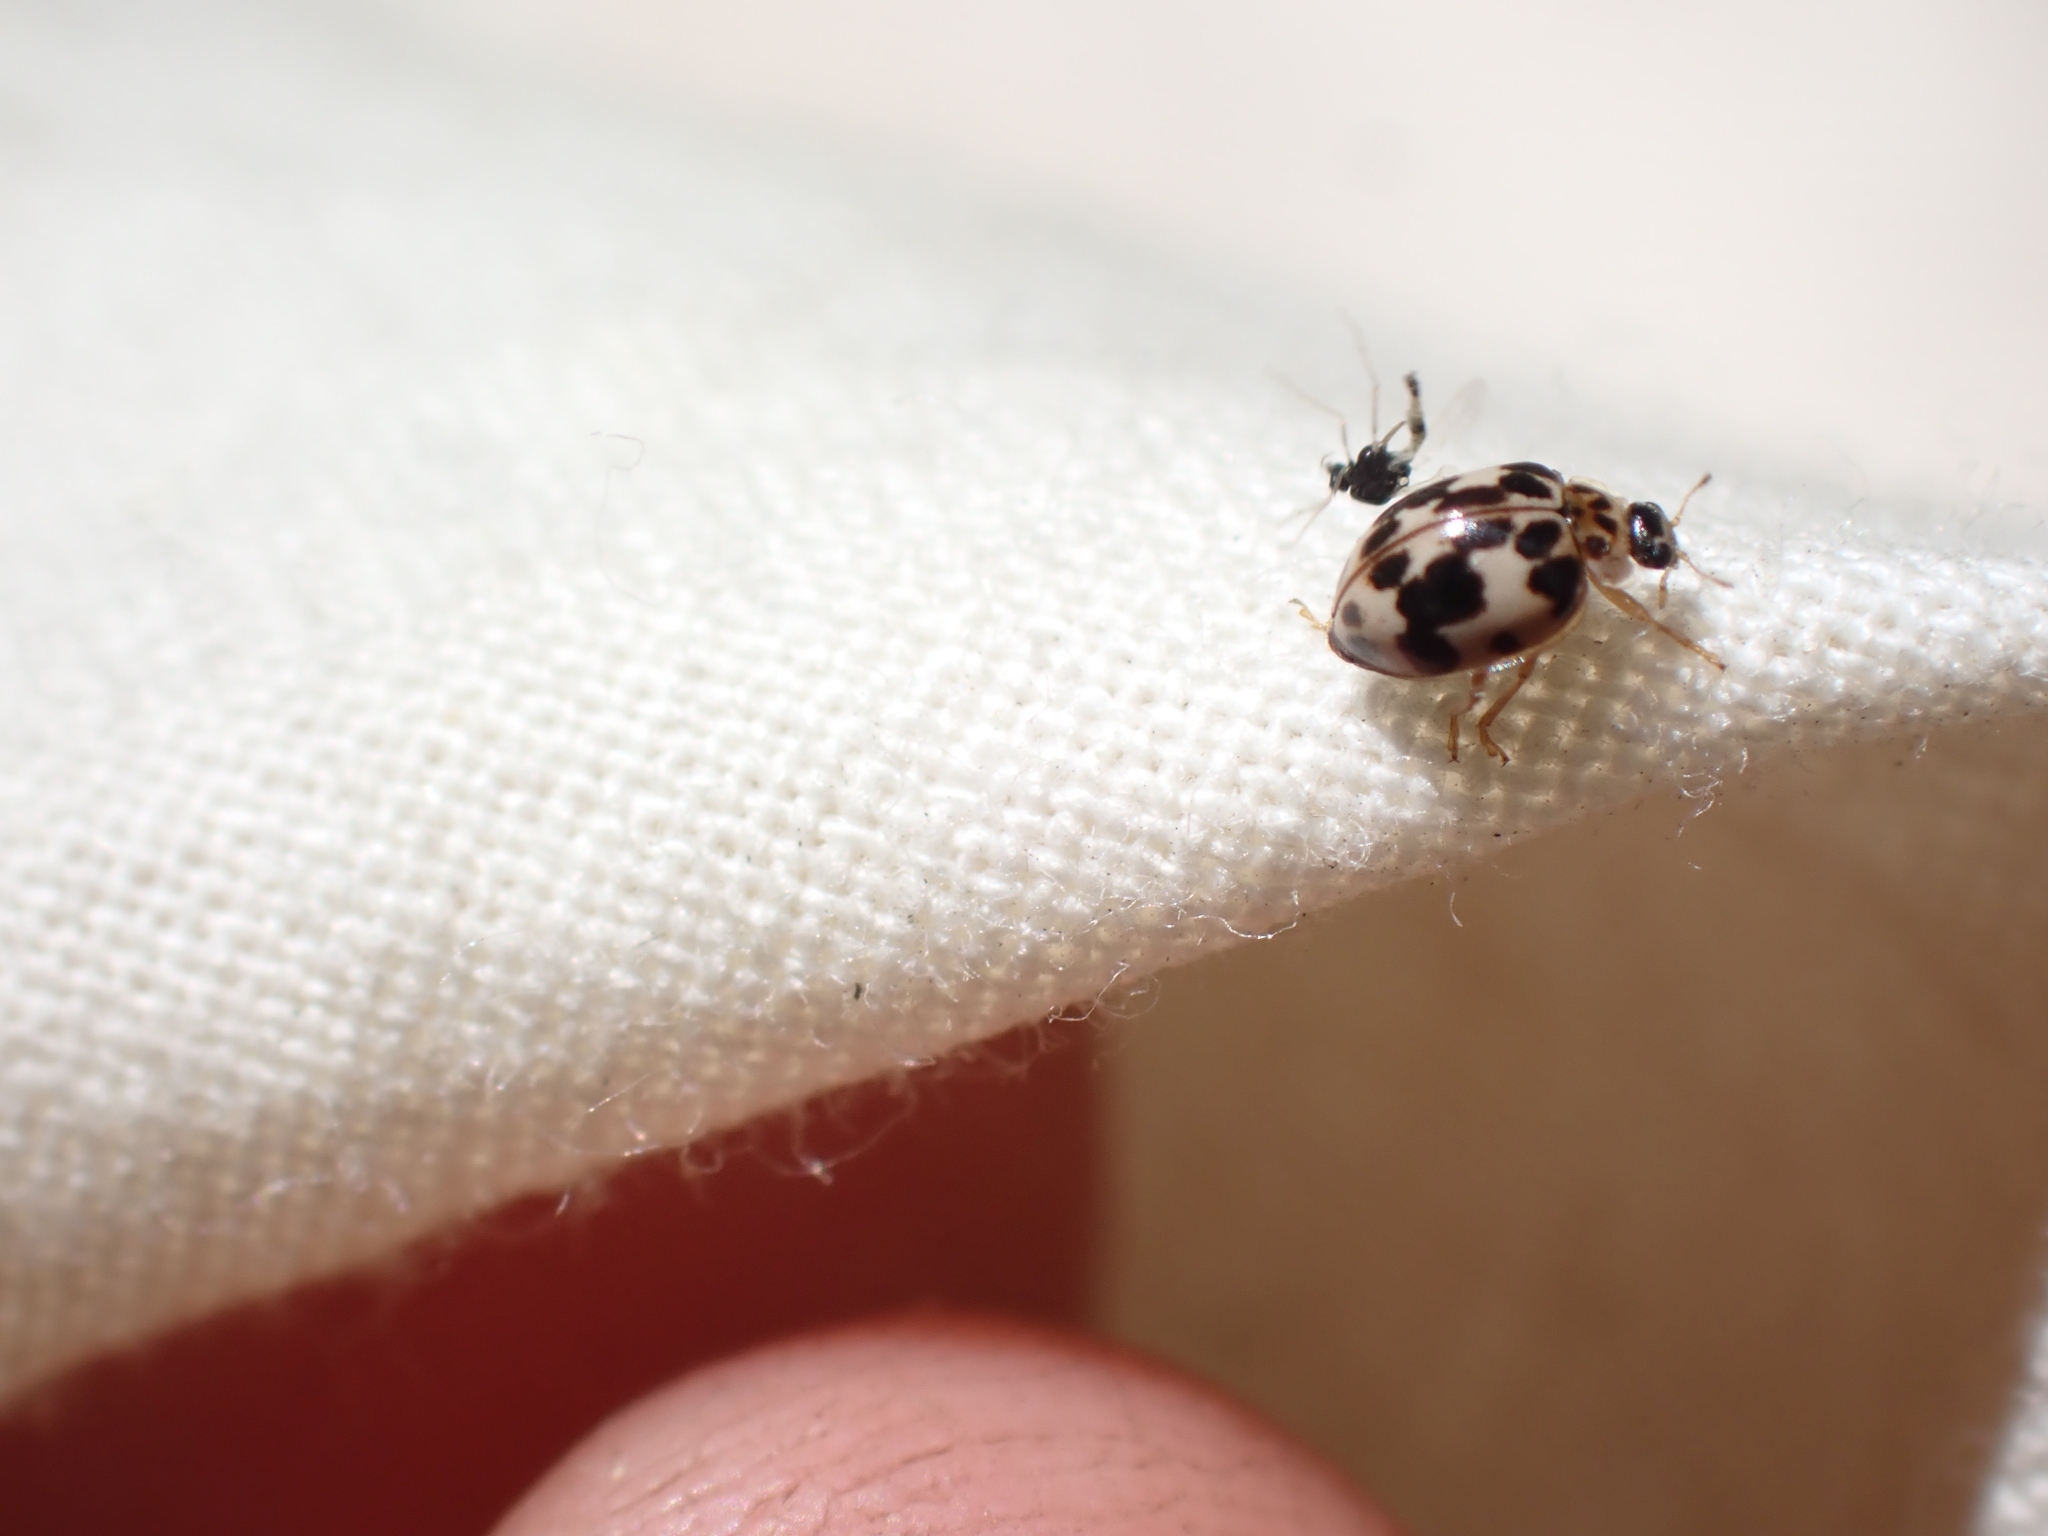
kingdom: Animalia
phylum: Arthropoda
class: Insecta
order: Coleoptera
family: Coccinellidae
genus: Psyllobora
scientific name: Psyllobora borealis
